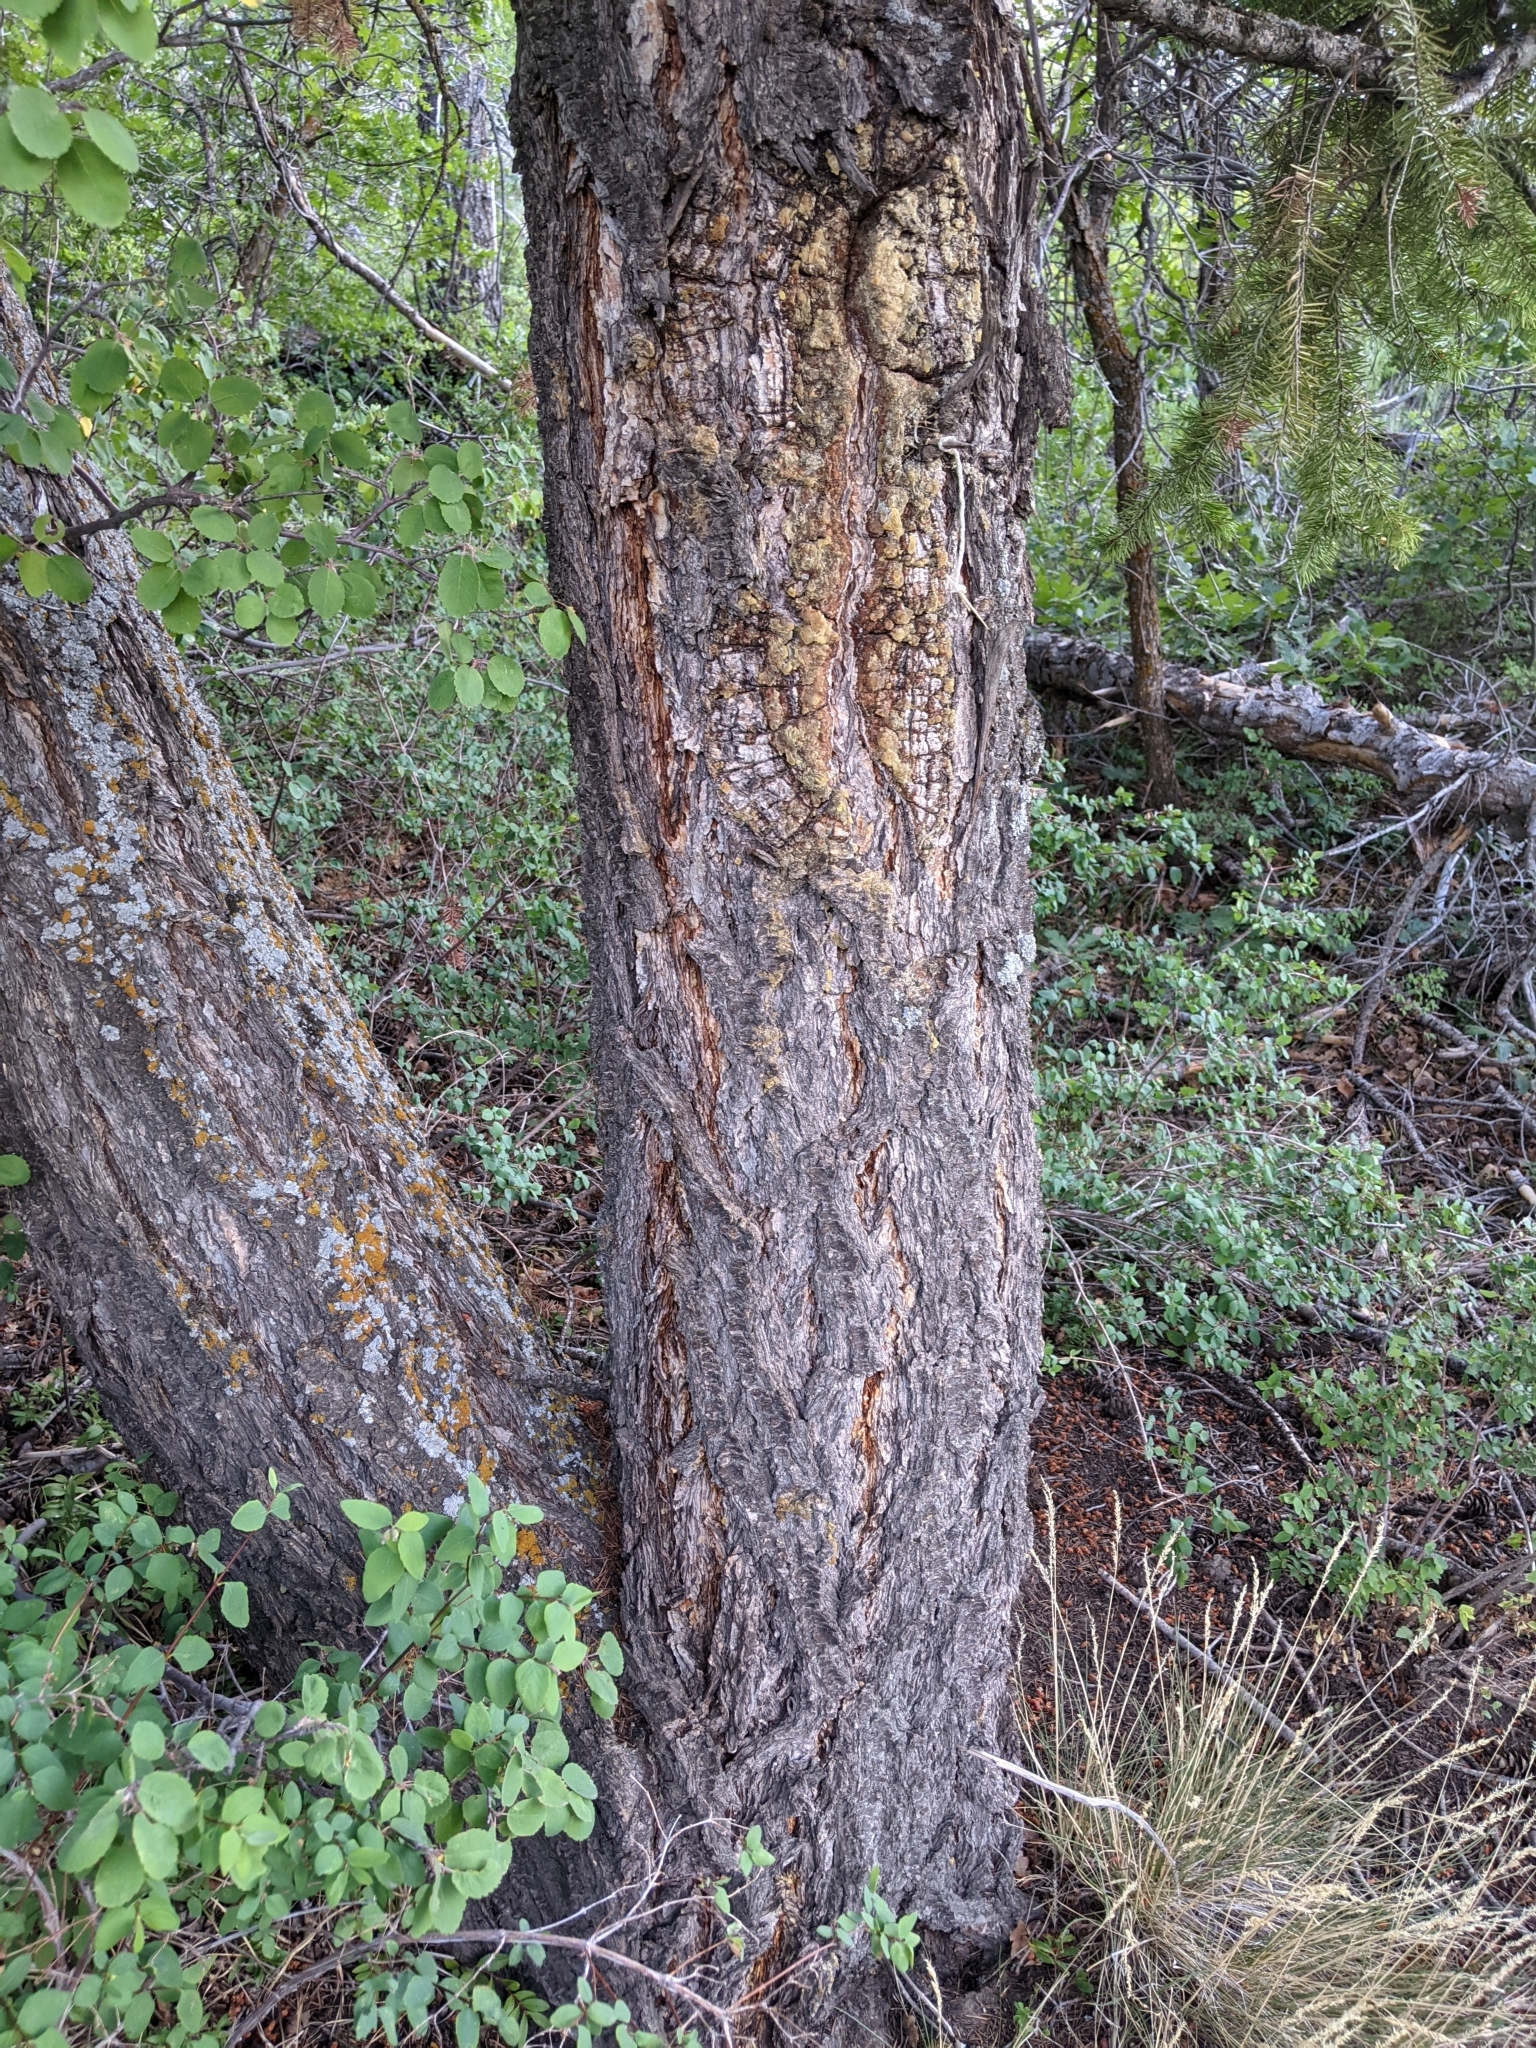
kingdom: Plantae
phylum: Tracheophyta
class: Pinopsida
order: Pinales
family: Pinaceae
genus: Pseudotsuga
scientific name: Pseudotsuga menziesii
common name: Douglas fir
